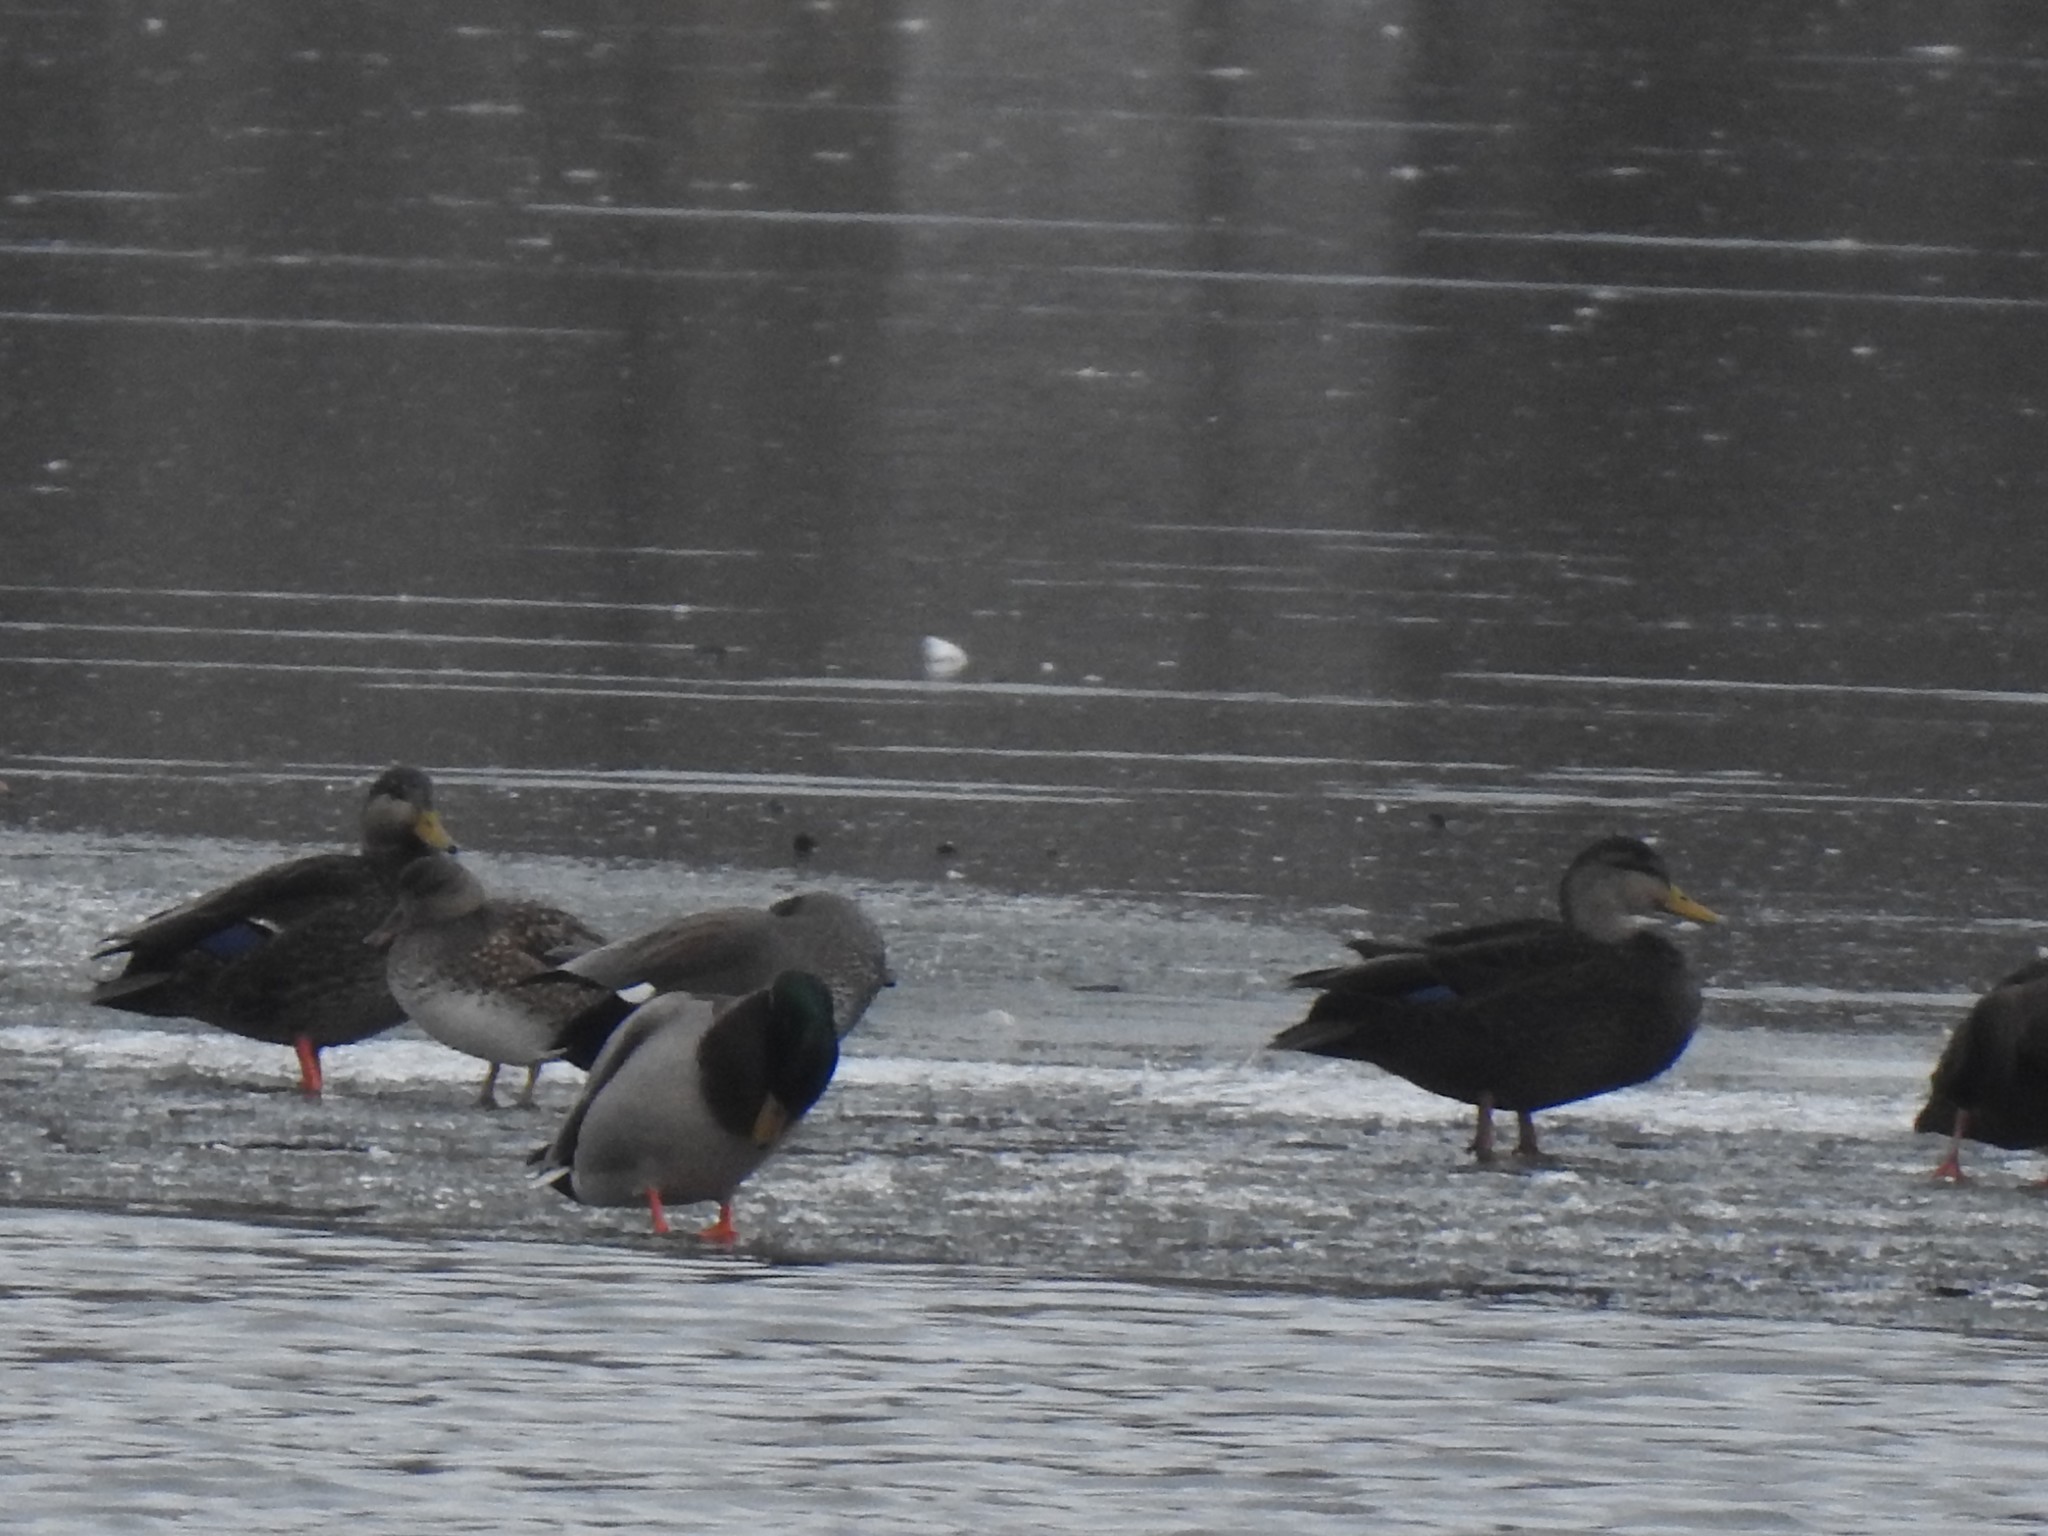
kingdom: Animalia
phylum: Chordata
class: Aves
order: Anseriformes
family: Anatidae
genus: Anas
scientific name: Anas rubripes
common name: American black duck
